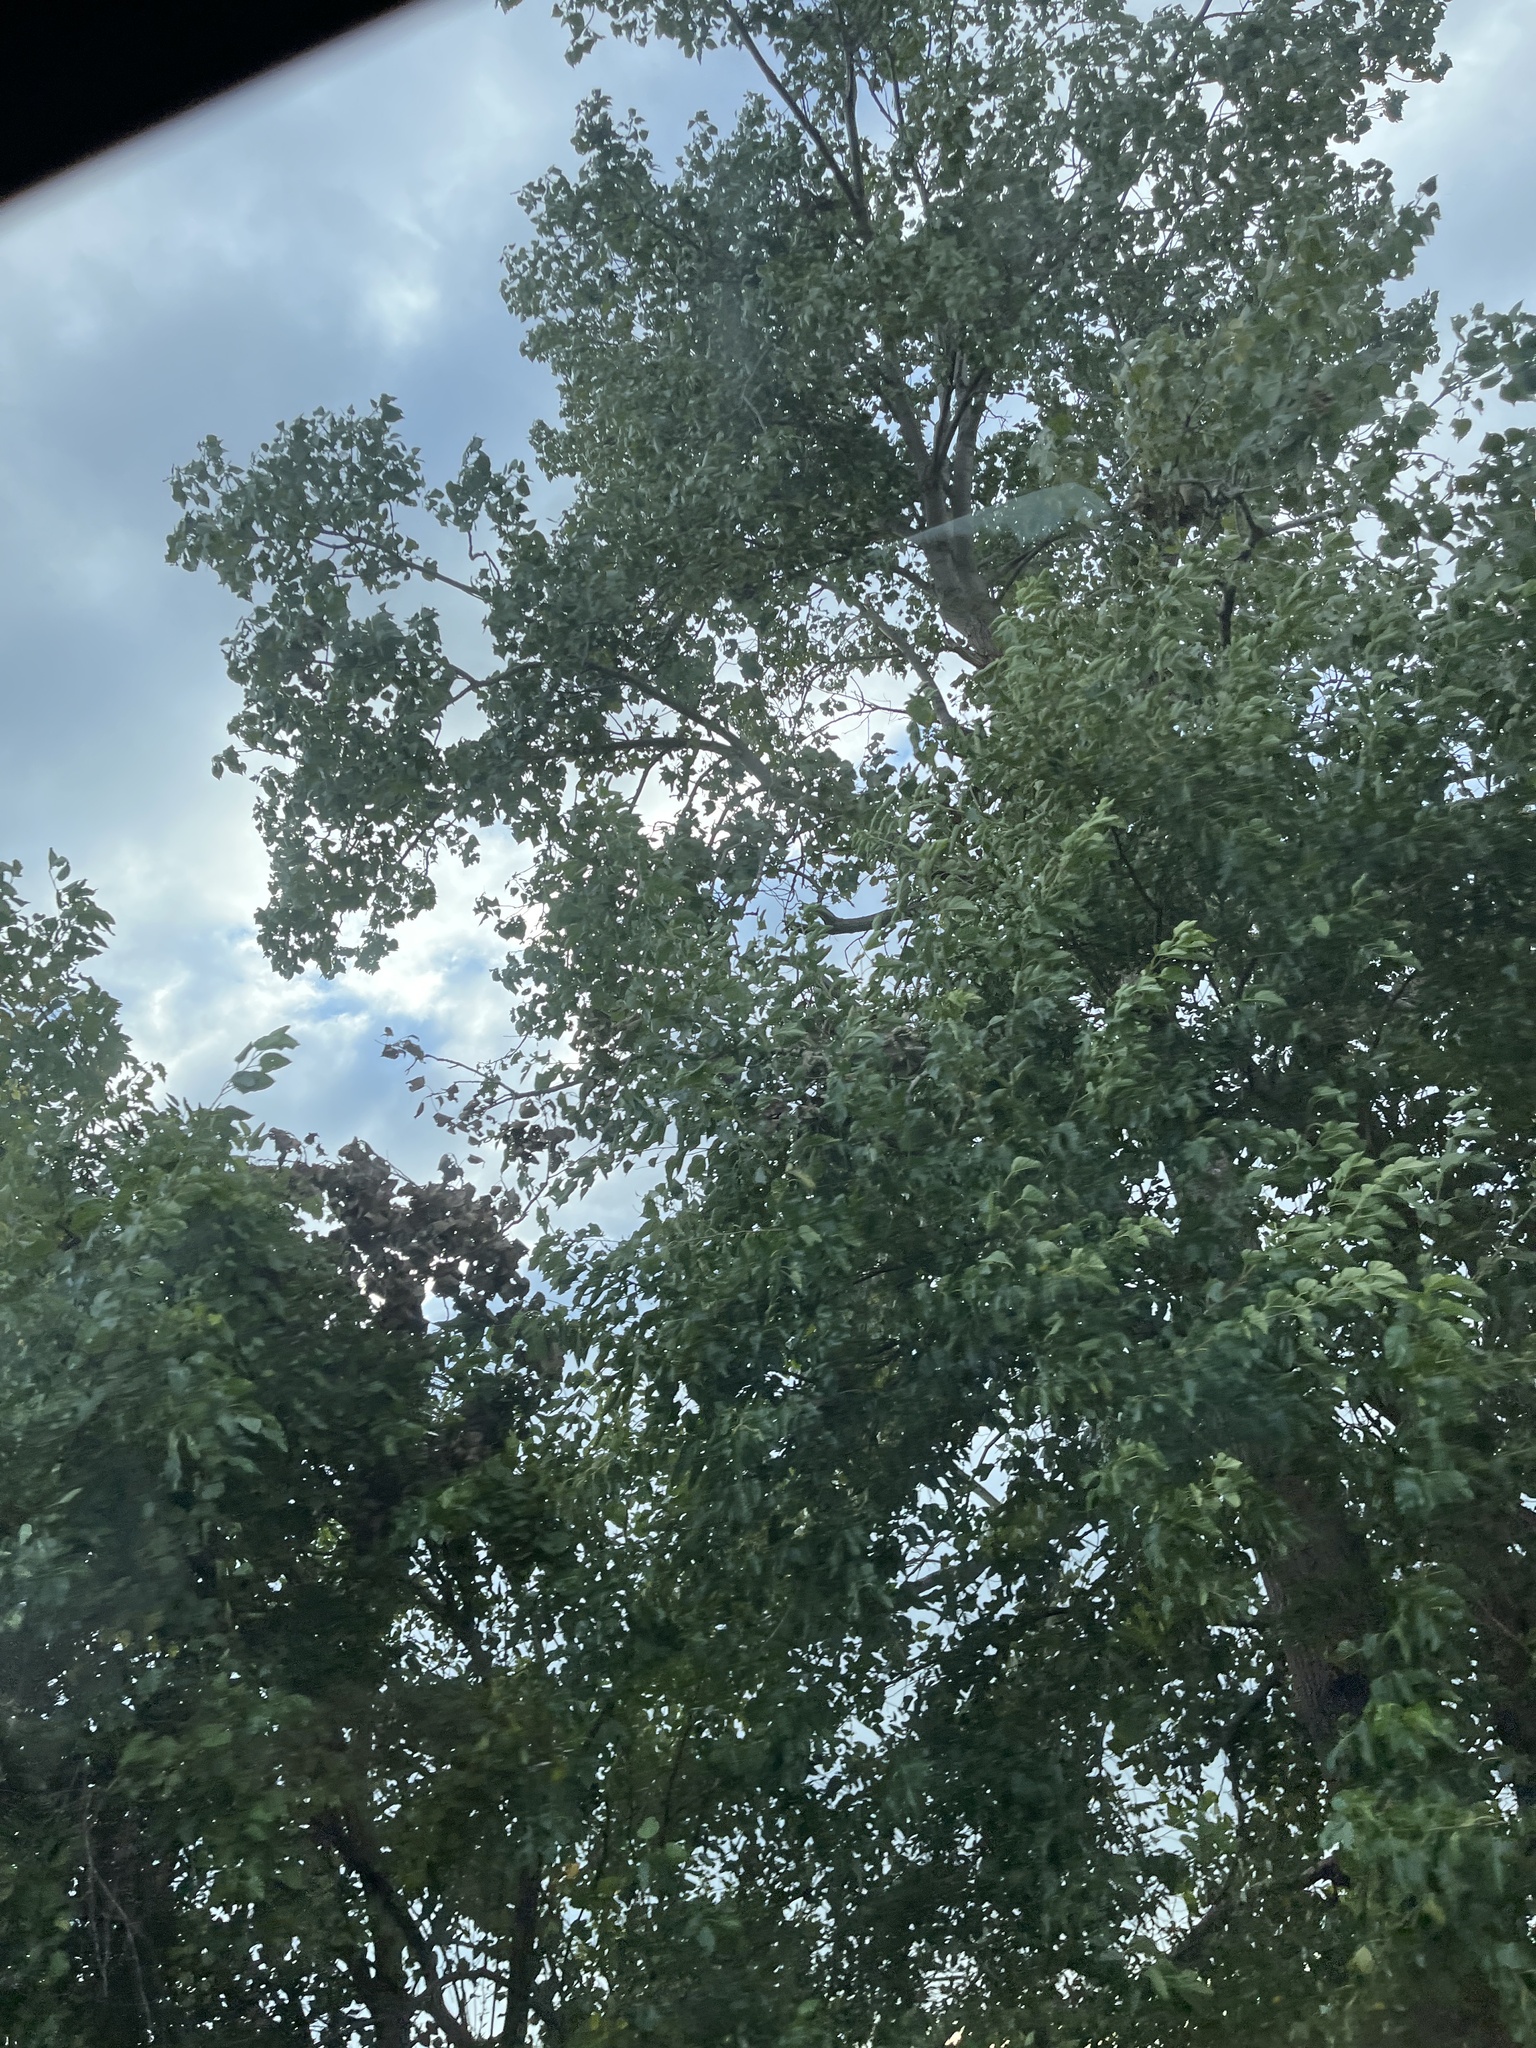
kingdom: Plantae
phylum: Tracheophyta
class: Magnoliopsida
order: Malpighiales
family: Salicaceae
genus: Populus
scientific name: Populus deltoides
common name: Eastern cottonwood
